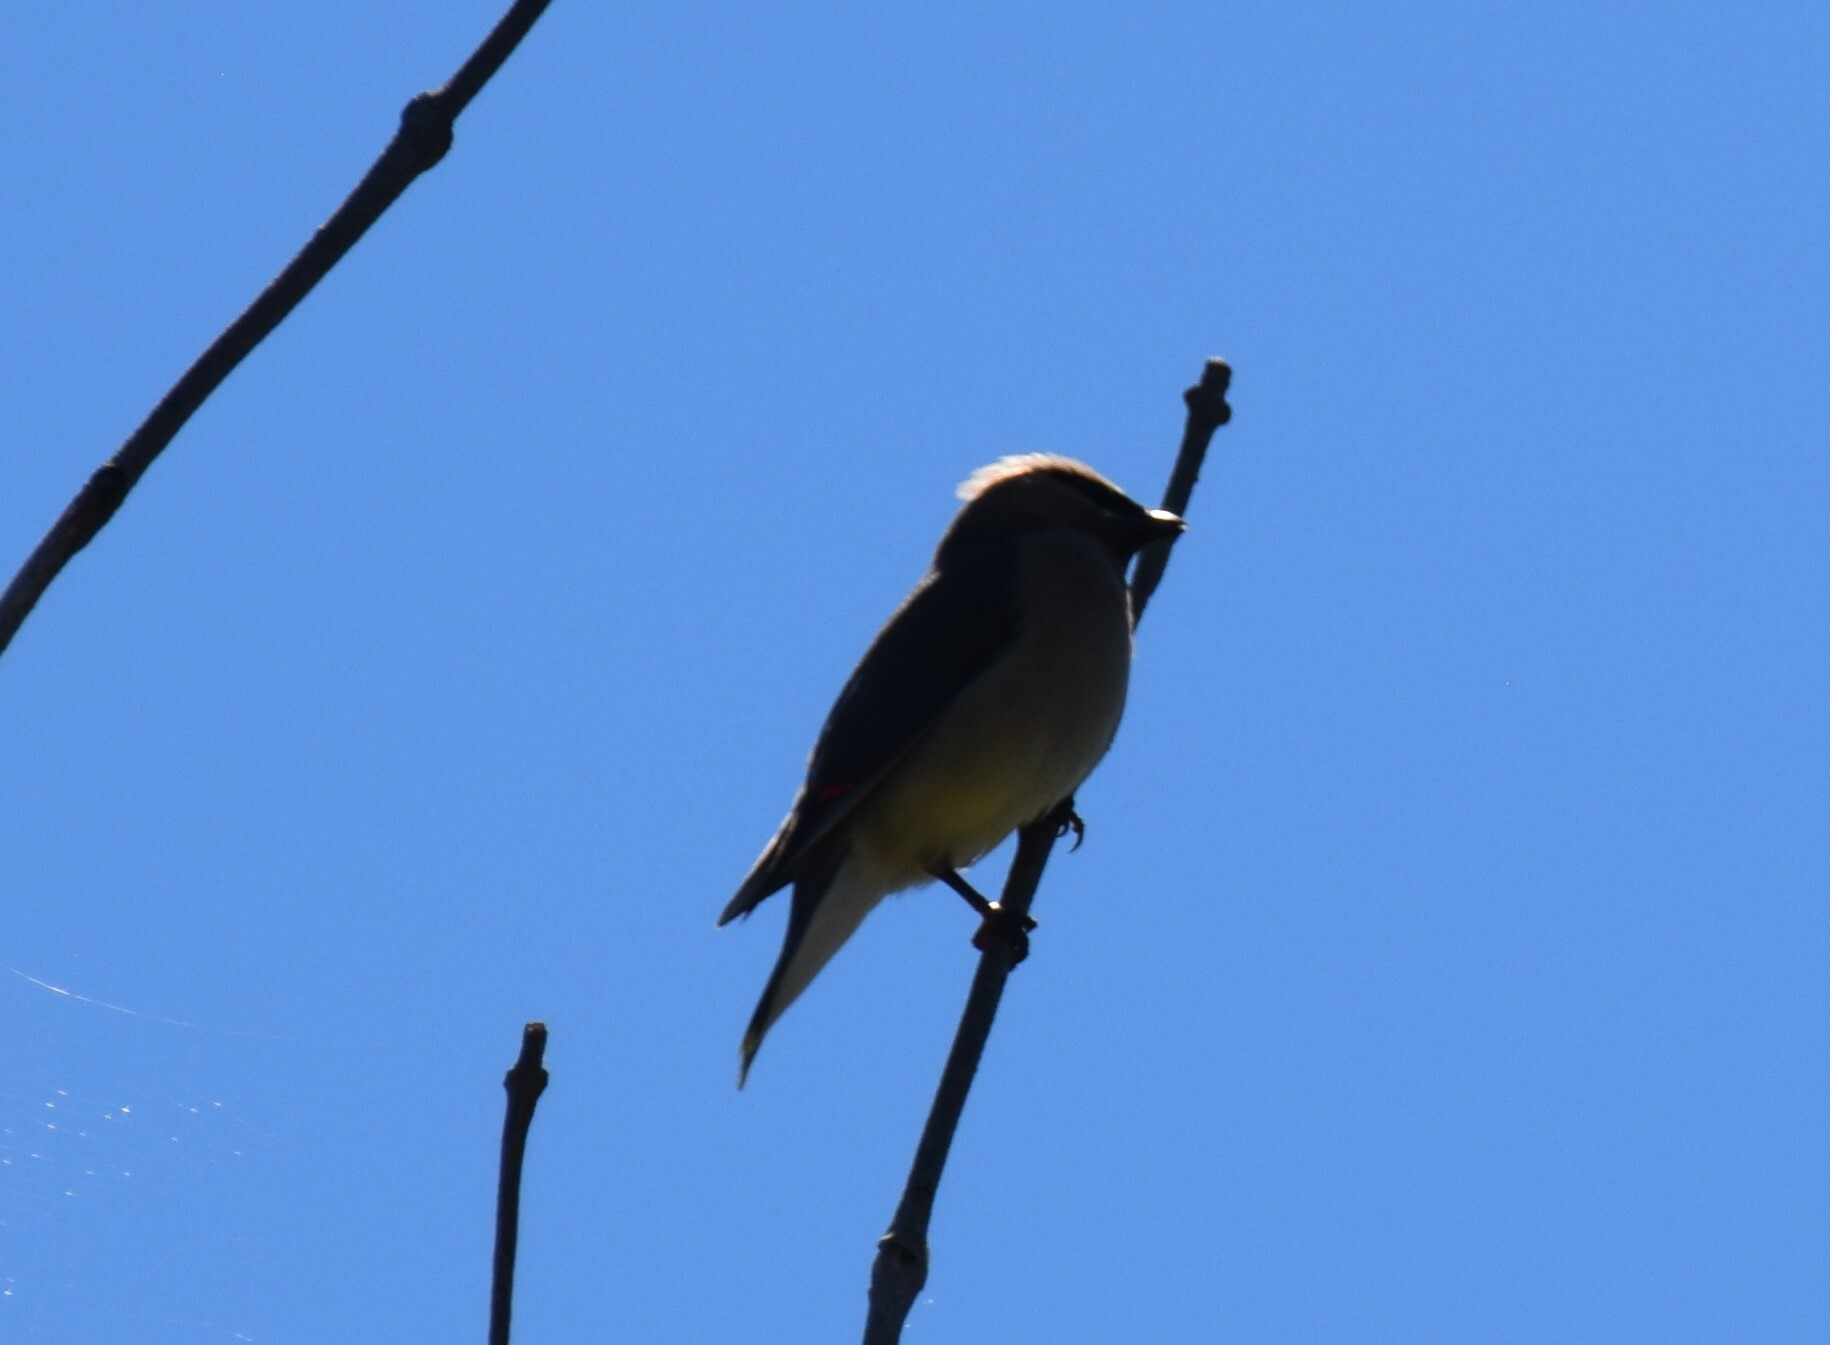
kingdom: Animalia
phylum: Chordata
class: Aves
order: Passeriformes
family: Bombycillidae
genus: Bombycilla
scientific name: Bombycilla cedrorum
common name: Cedar waxwing
